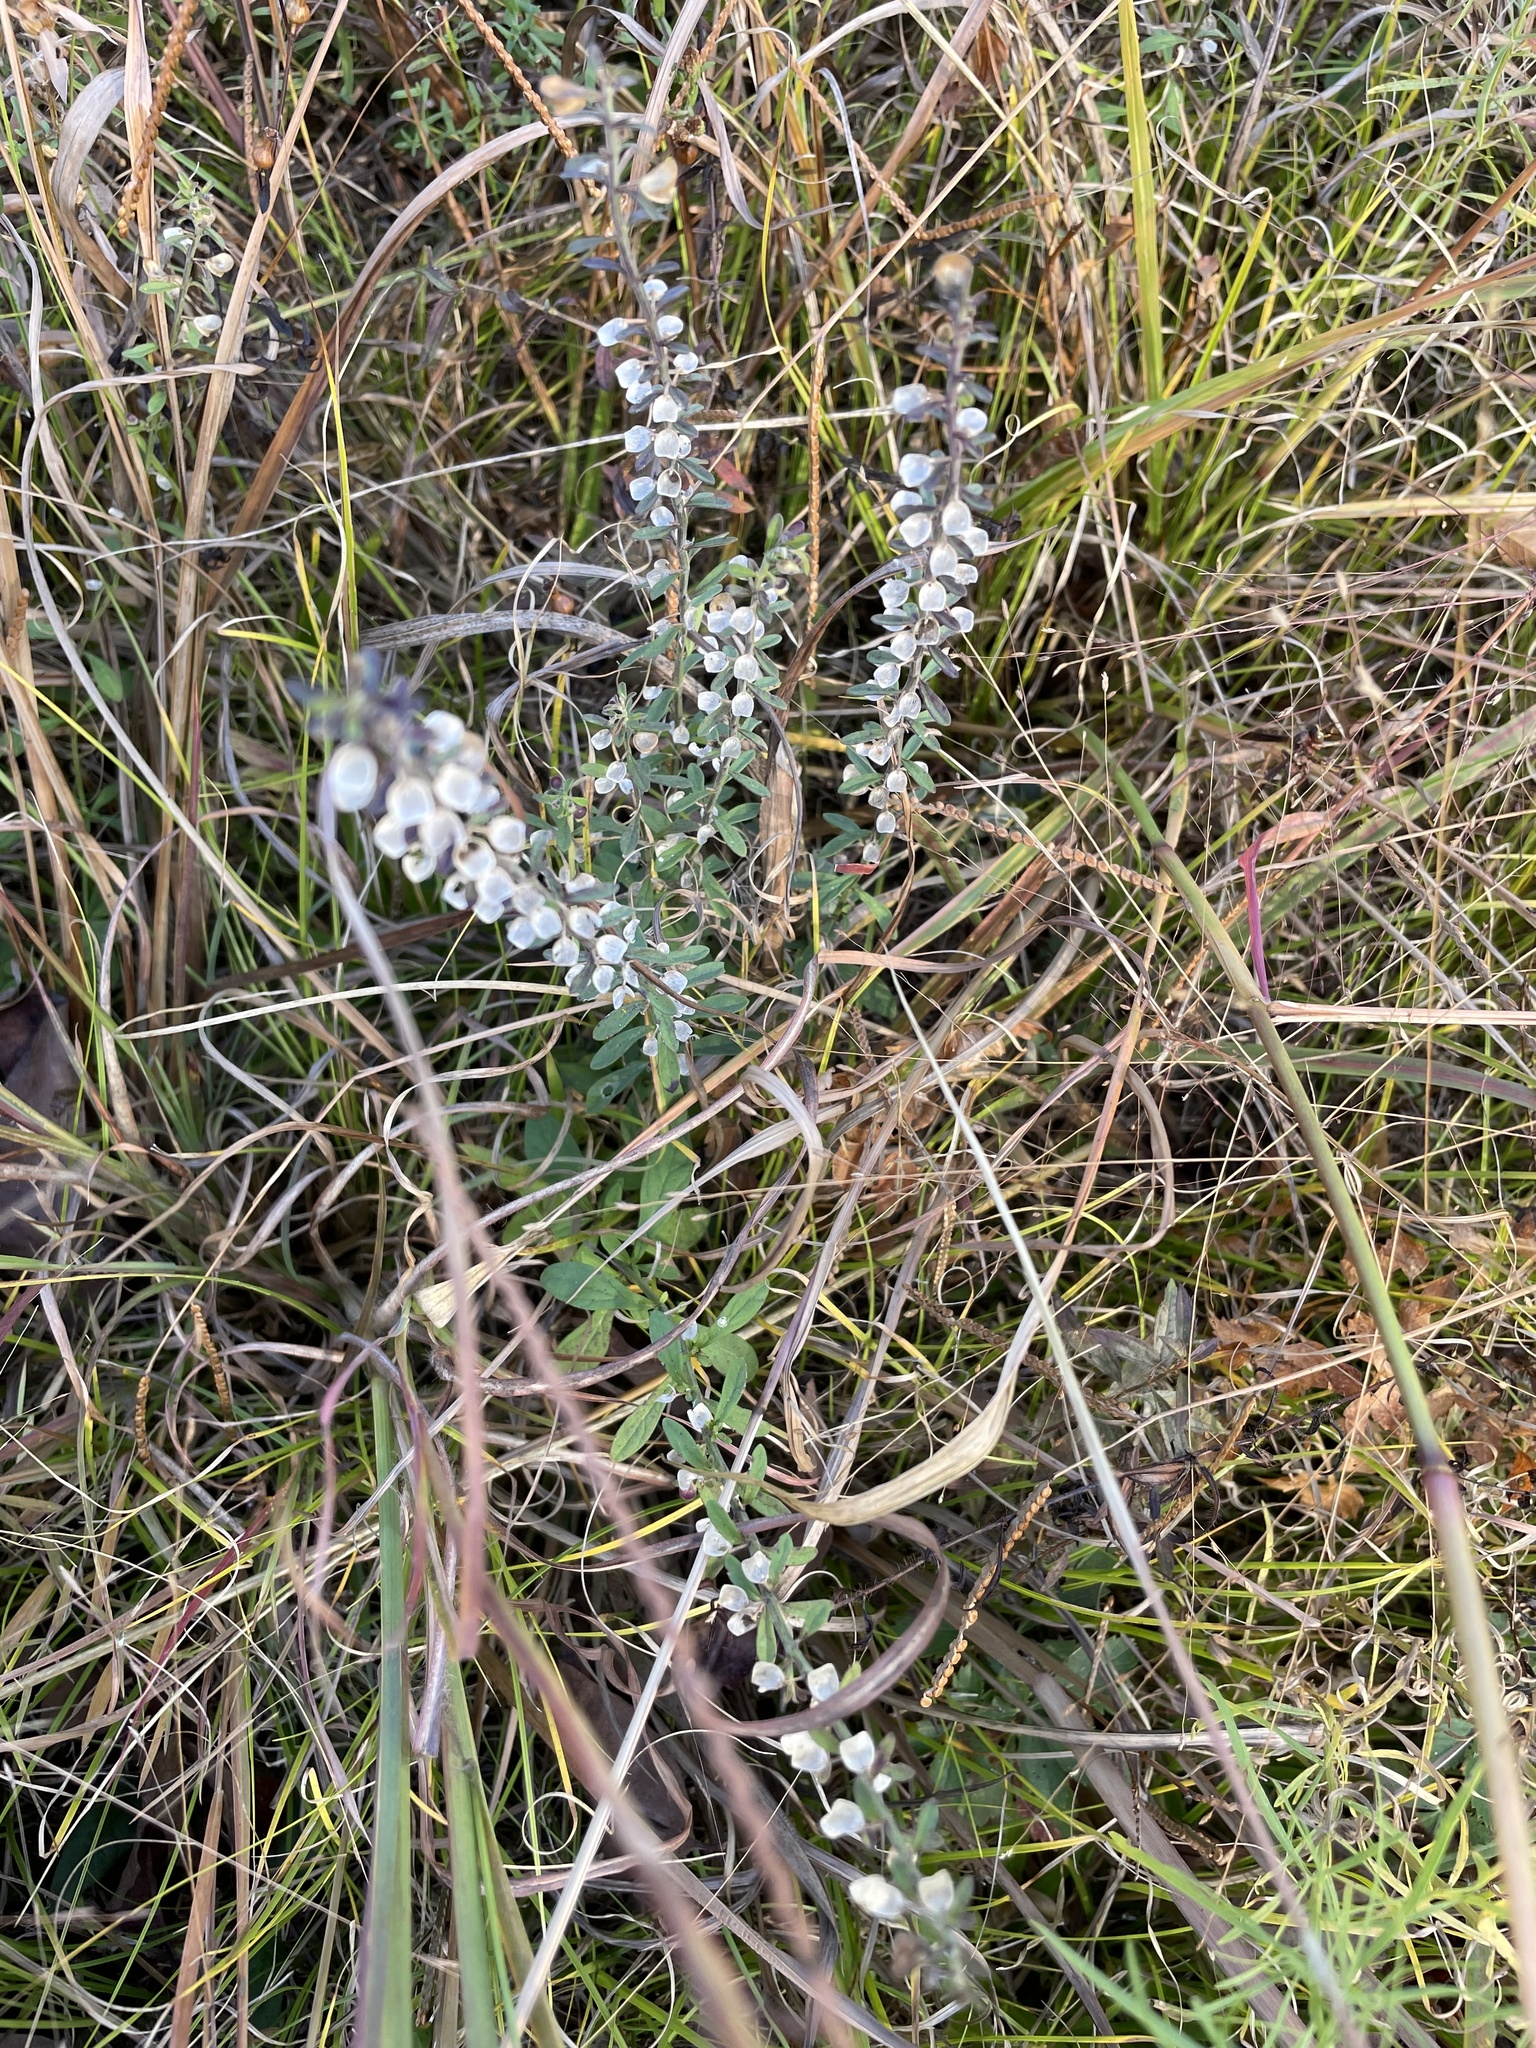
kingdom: Plantae
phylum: Tracheophyta
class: Magnoliopsida
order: Lamiales
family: Lamiaceae
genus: Scutellaria
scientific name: Scutellaria integrifolia
